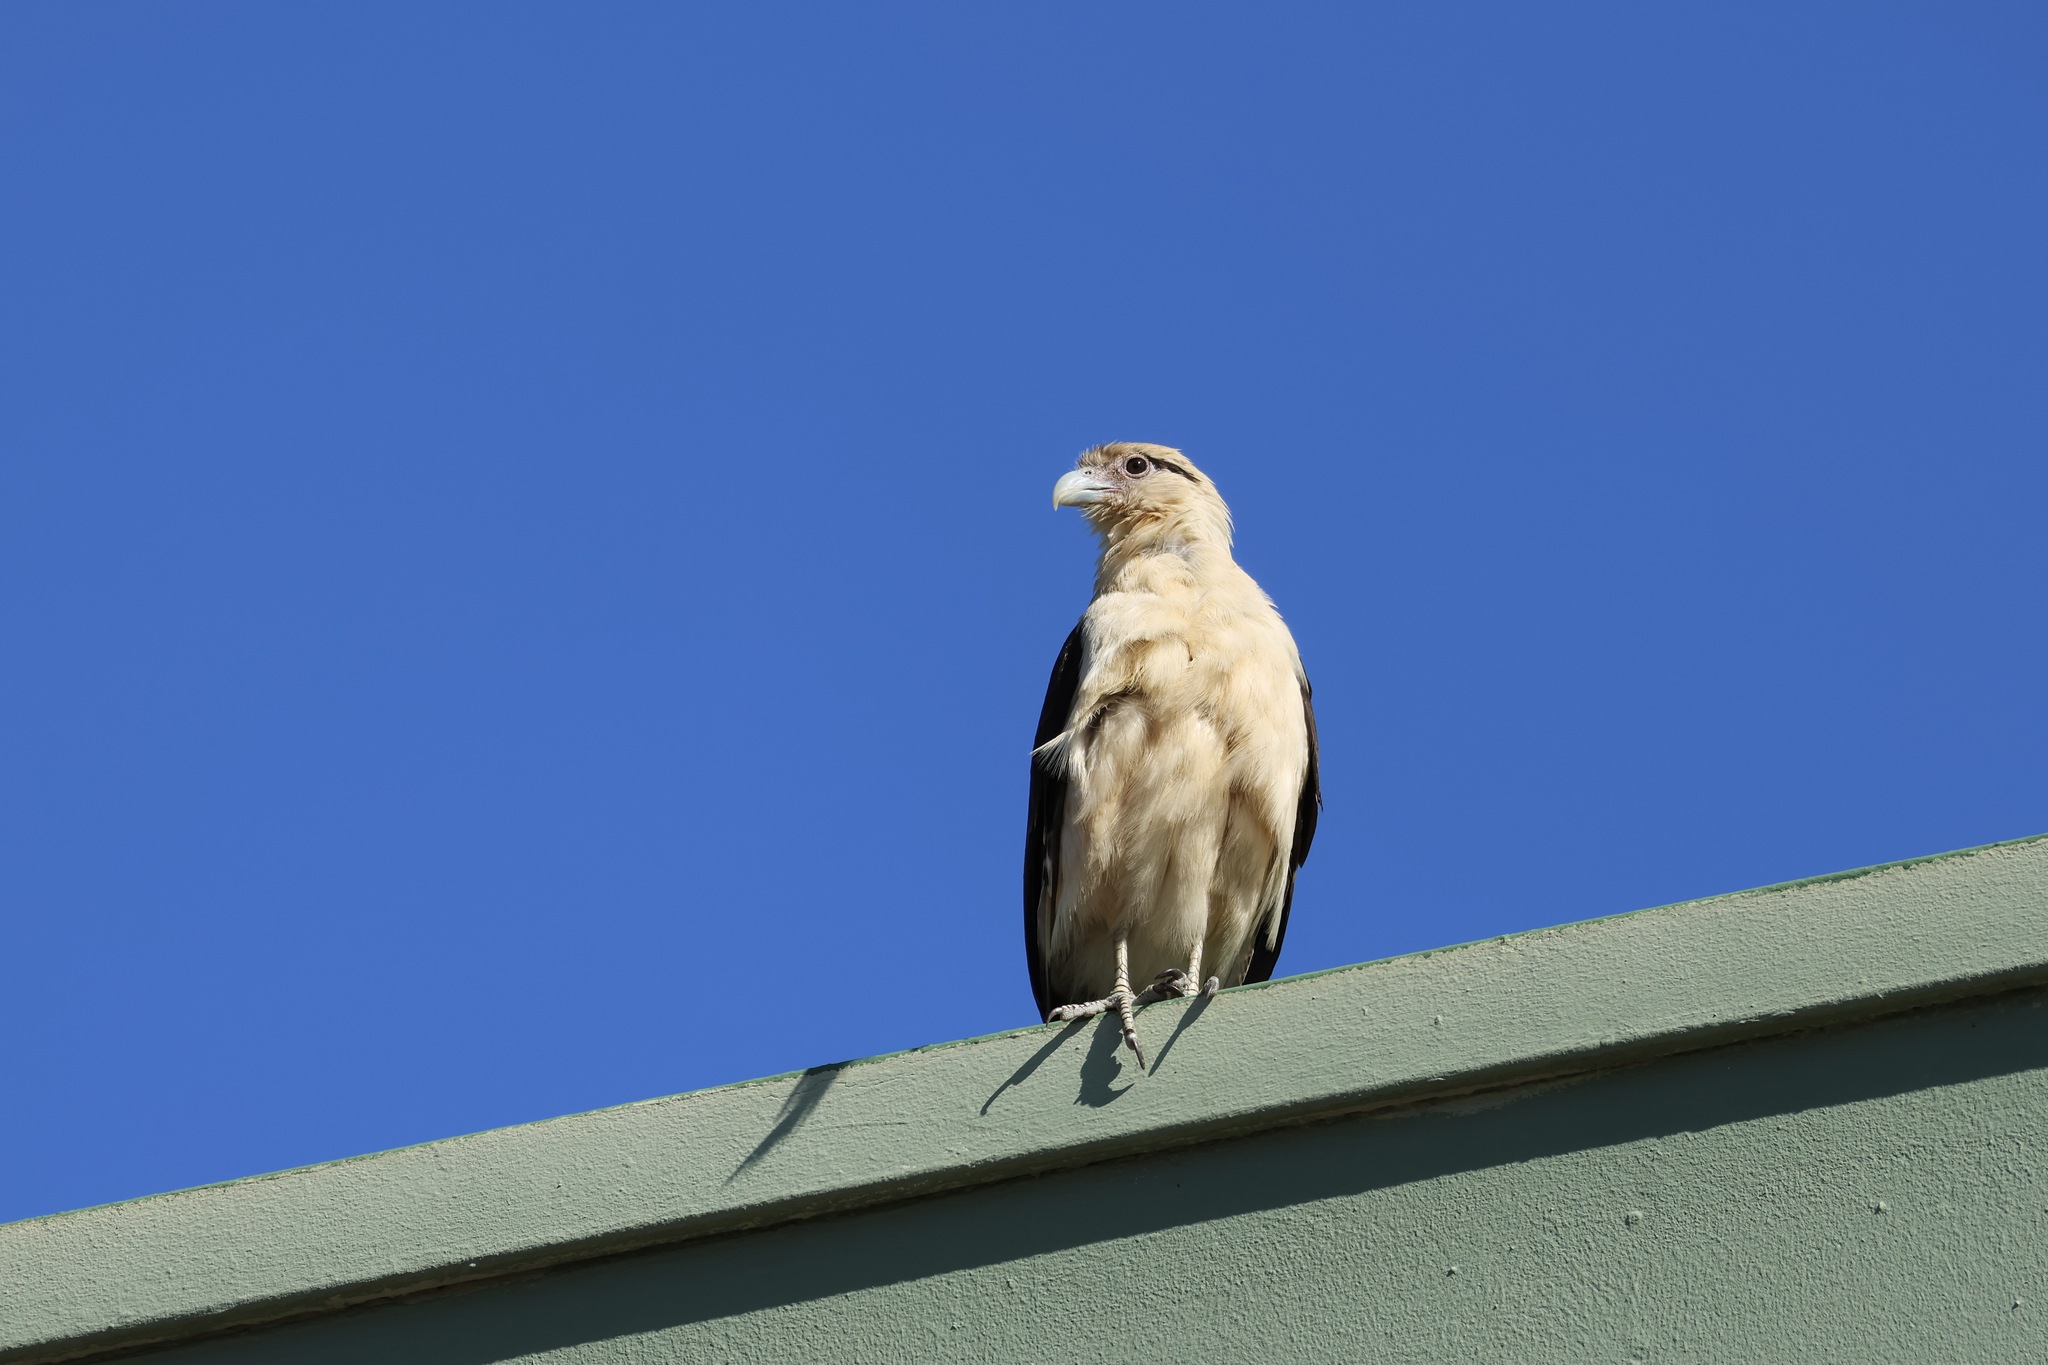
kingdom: Animalia
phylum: Chordata
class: Aves
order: Falconiformes
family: Falconidae
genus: Daptrius
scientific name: Daptrius
